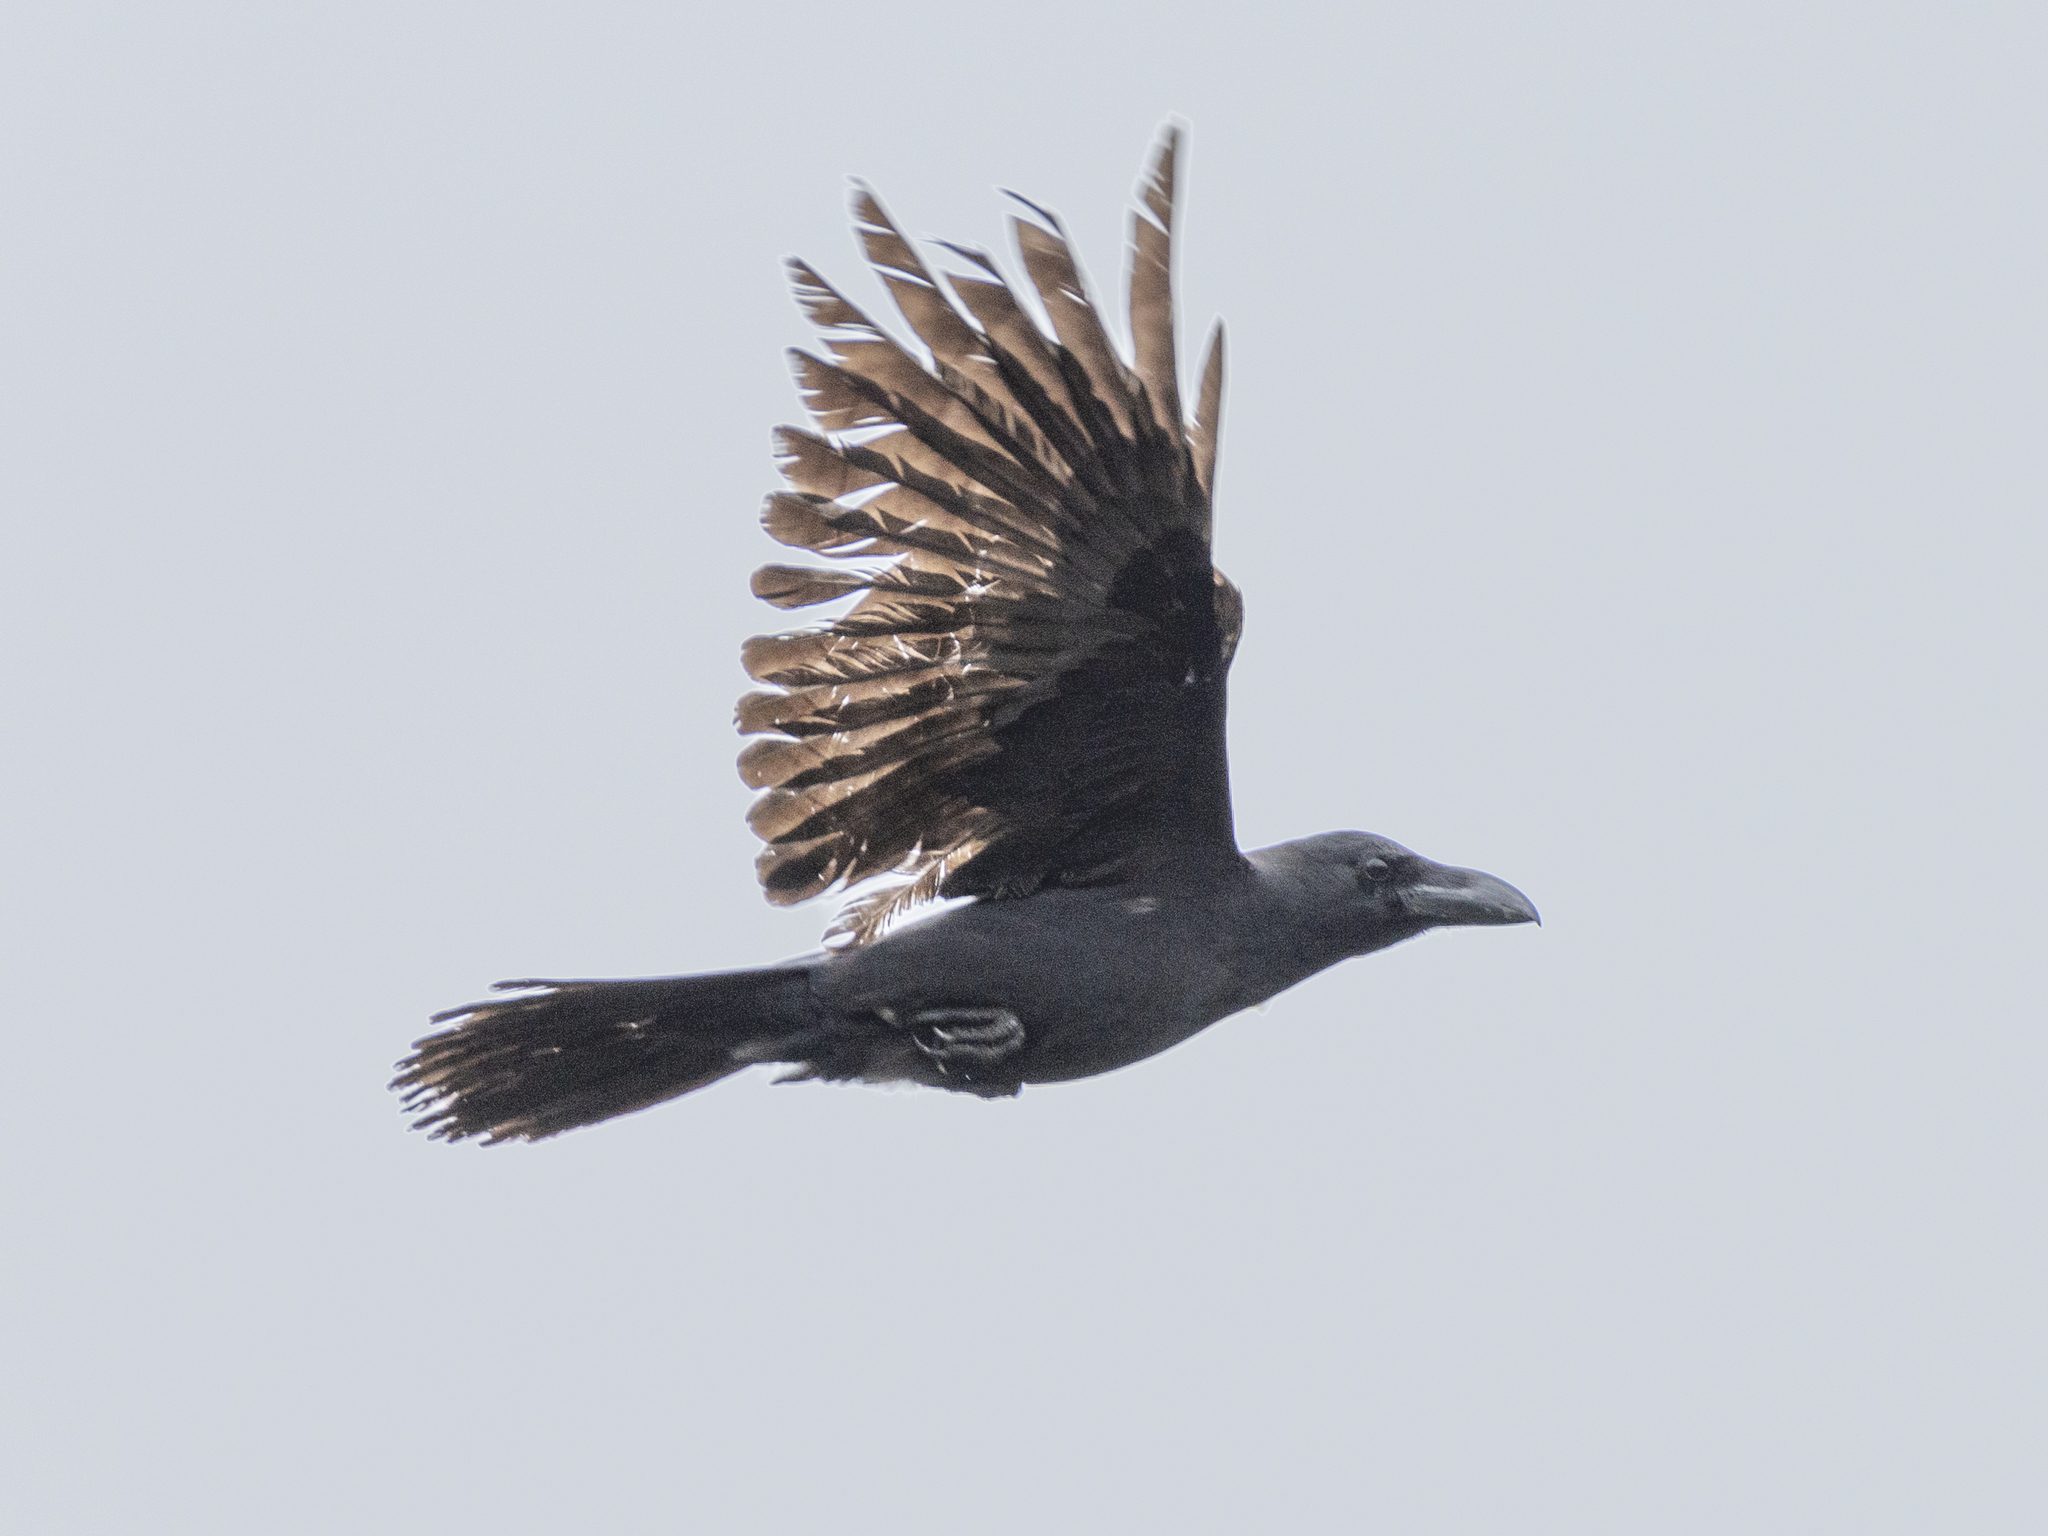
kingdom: Animalia
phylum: Chordata
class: Aves
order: Passeriformes
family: Corvidae
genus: Corvus
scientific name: Corvus macrorhynchos
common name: Large-billed crow
